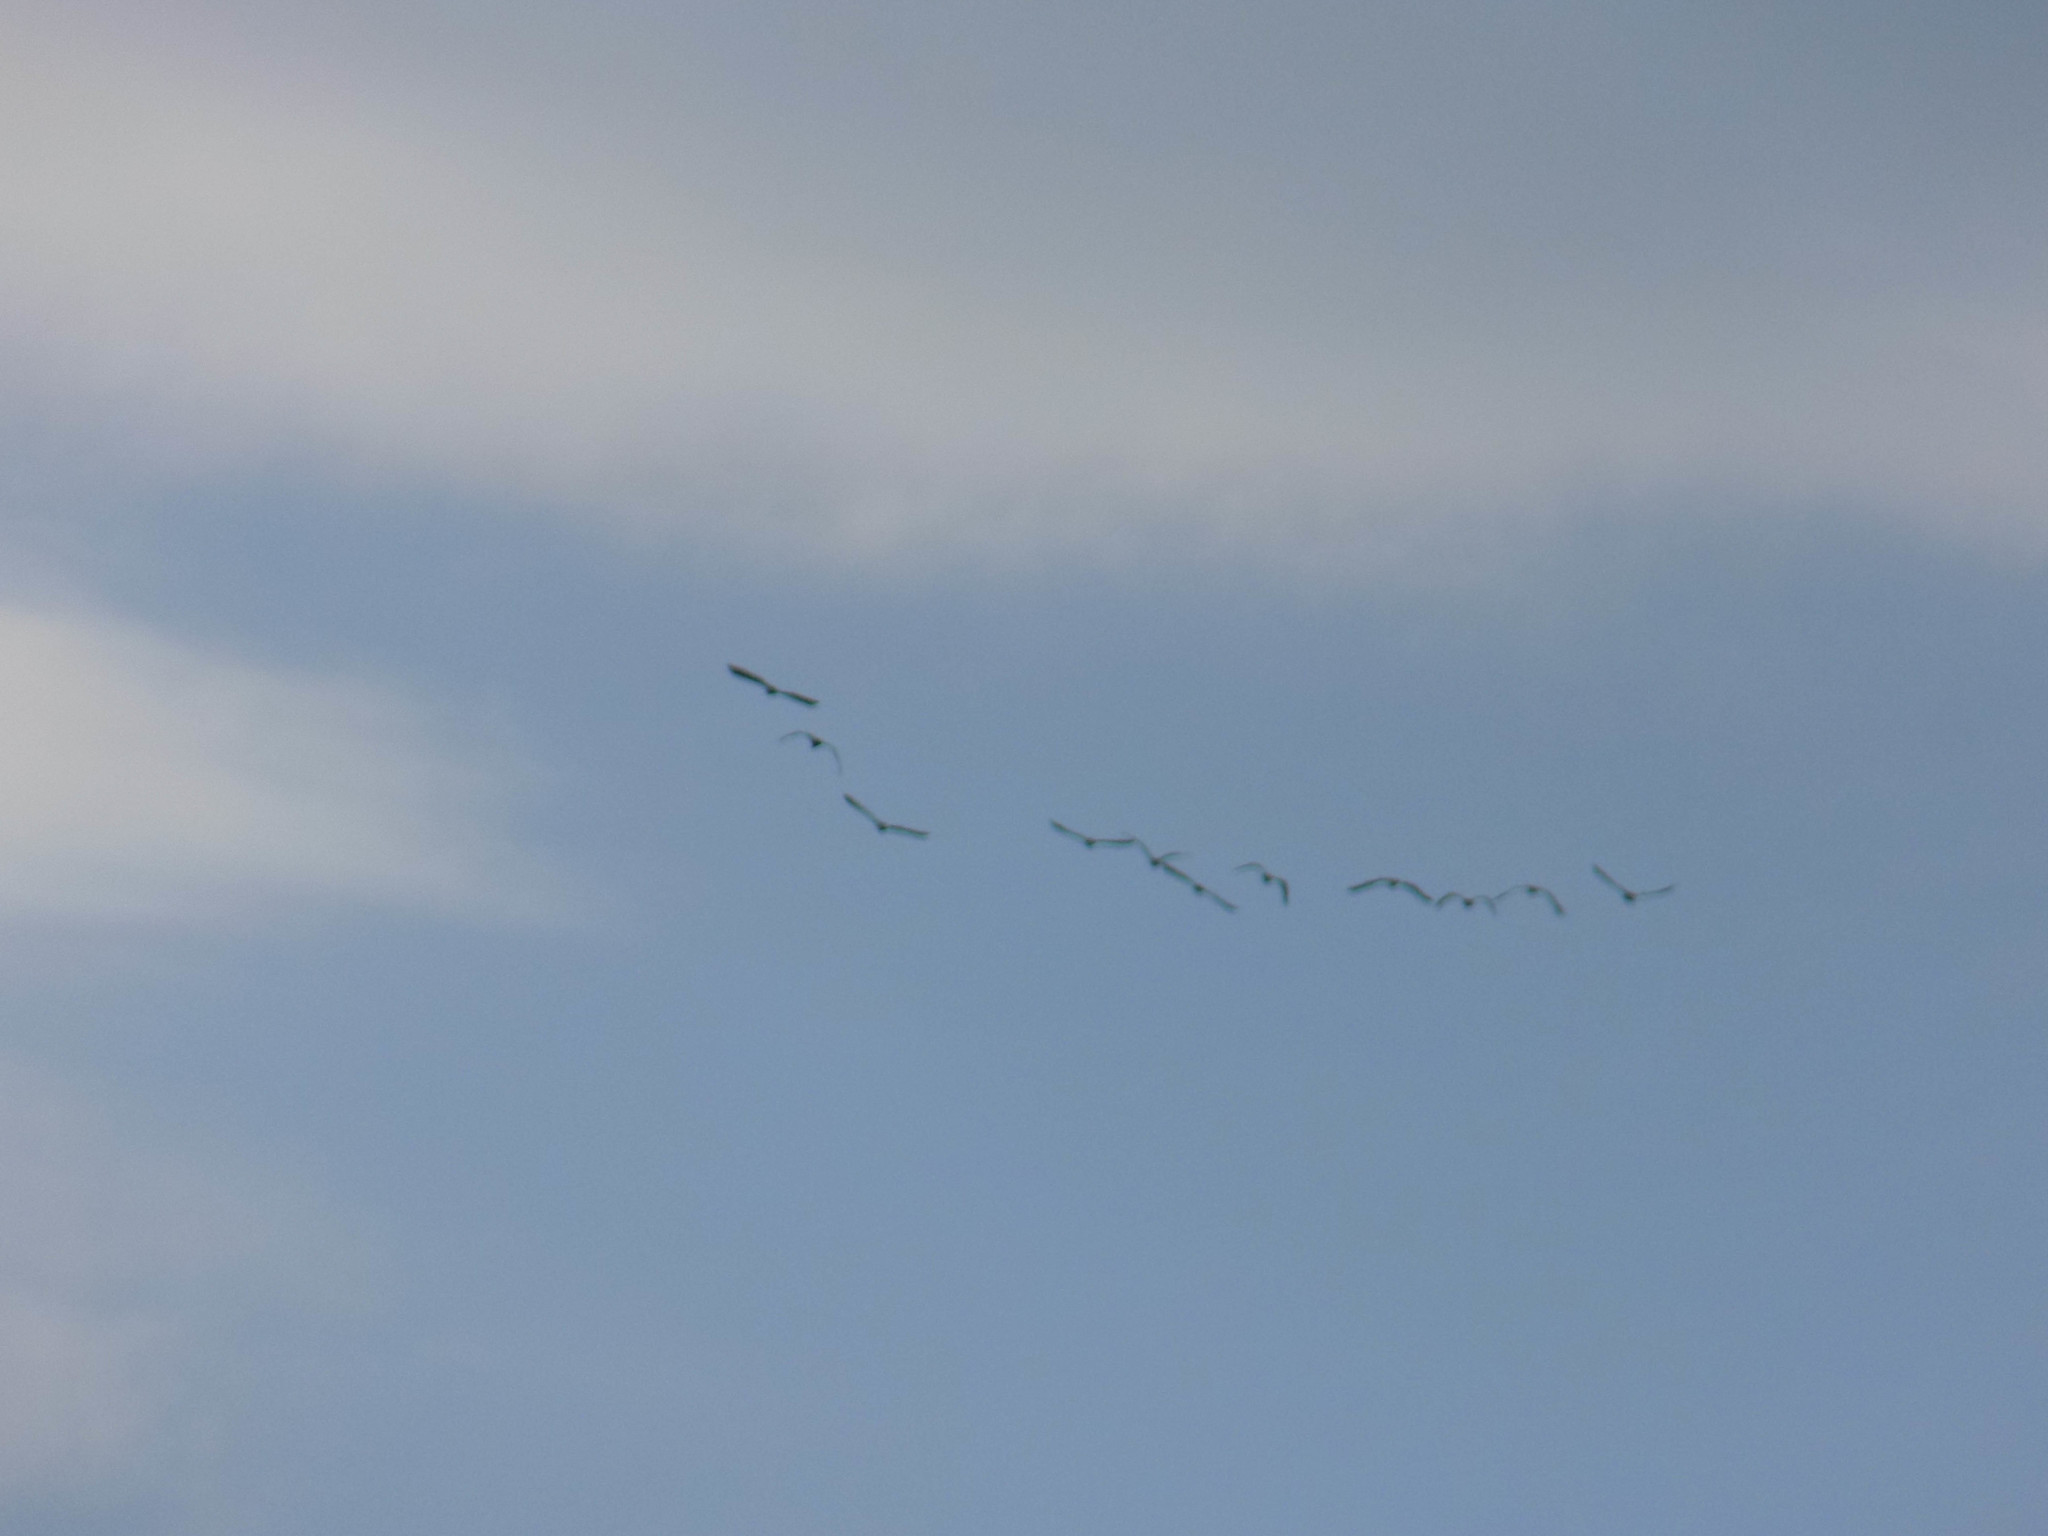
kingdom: Animalia
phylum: Chordata
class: Aves
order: Suliformes
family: Phalacrocoracidae
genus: Phalacrocorax
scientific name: Phalacrocorax carbo
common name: Great cormorant
